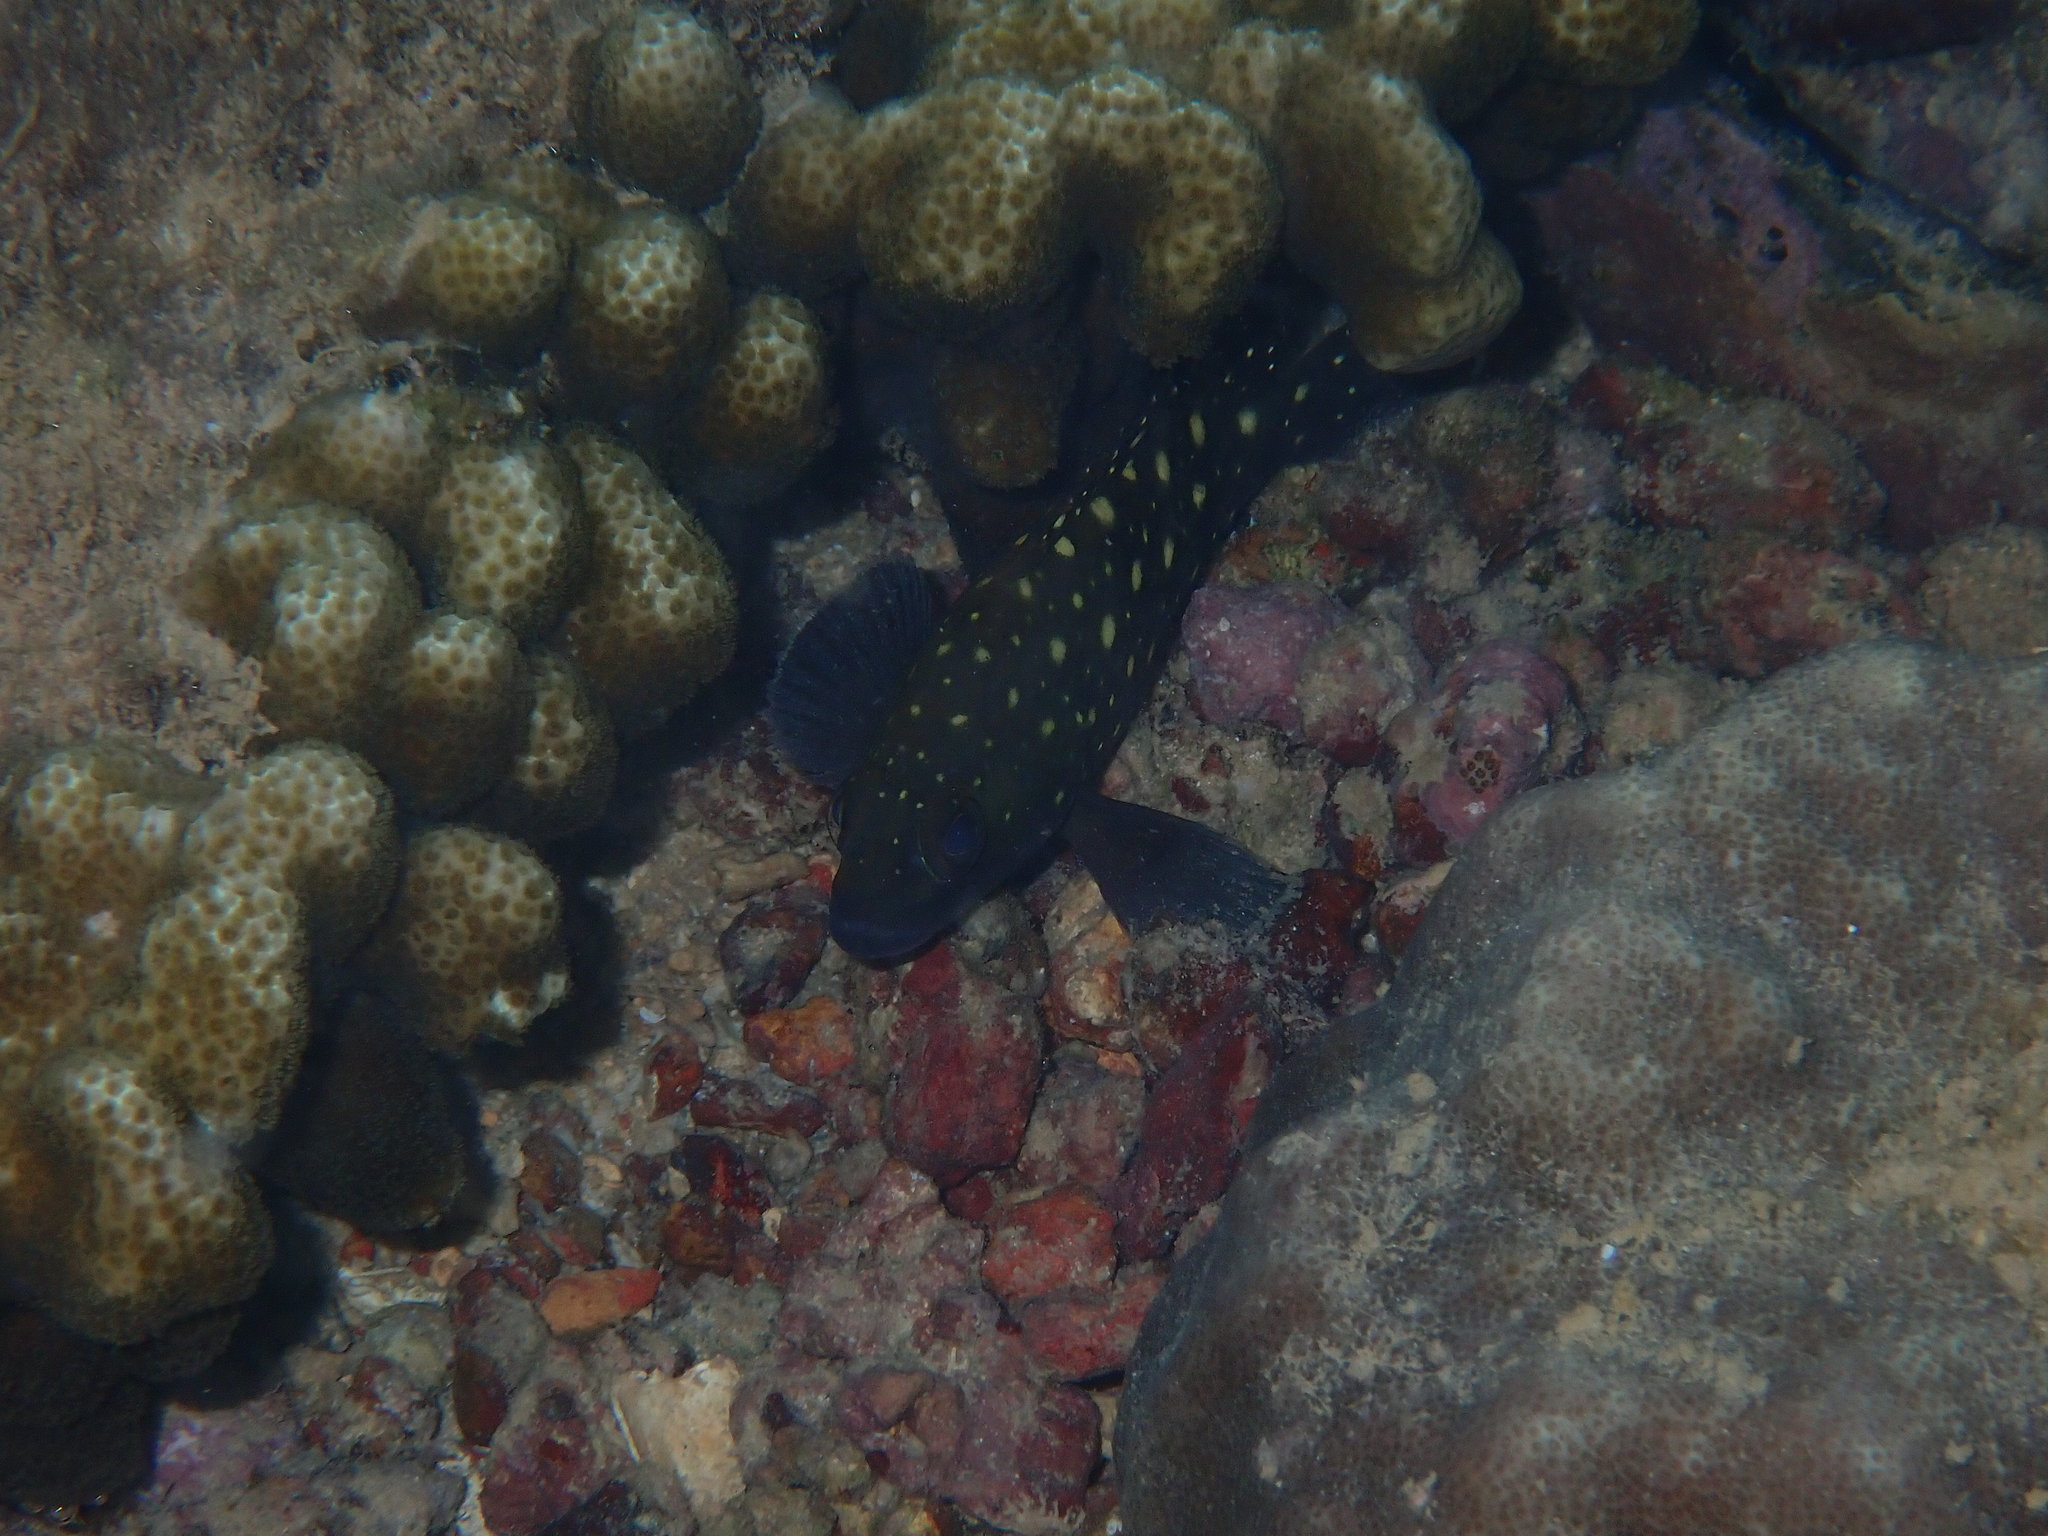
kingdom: Animalia
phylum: Chordata
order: Perciformes
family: Serranidae
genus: Epinephelus
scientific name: Epinephelus coeruleopunctatus
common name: Whitespotted grouper
